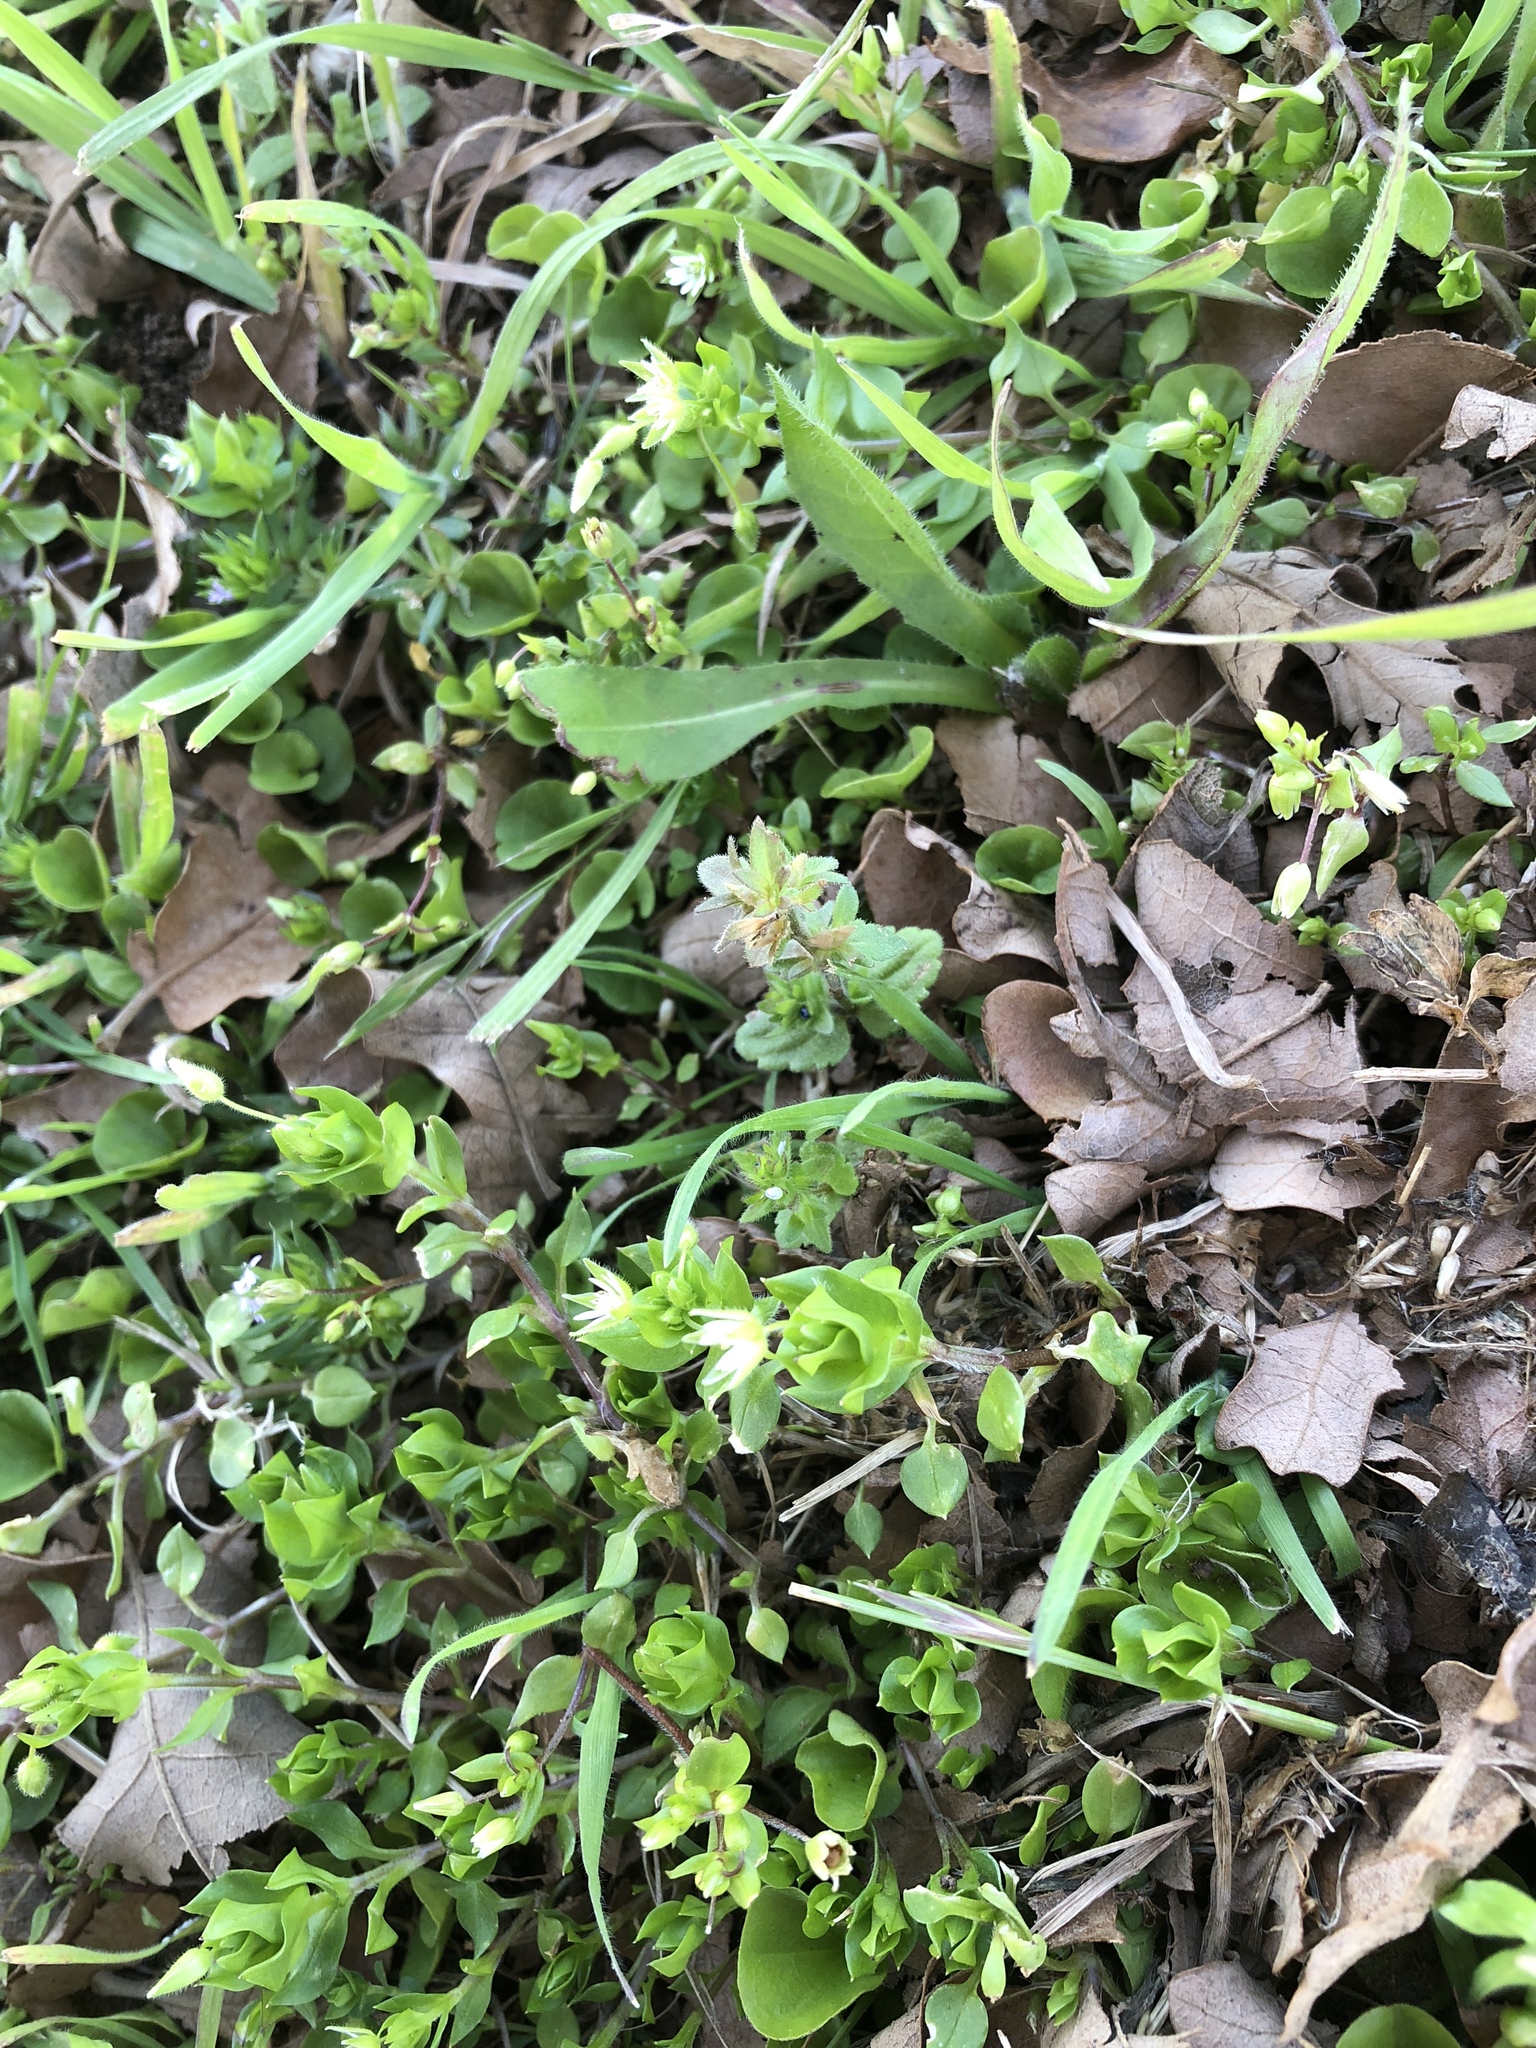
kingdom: Plantae
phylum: Tracheophyta
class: Magnoliopsida
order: Caryophyllales
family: Caryophyllaceae
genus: Stellaria
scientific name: Stellaria media
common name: Common chickweed
